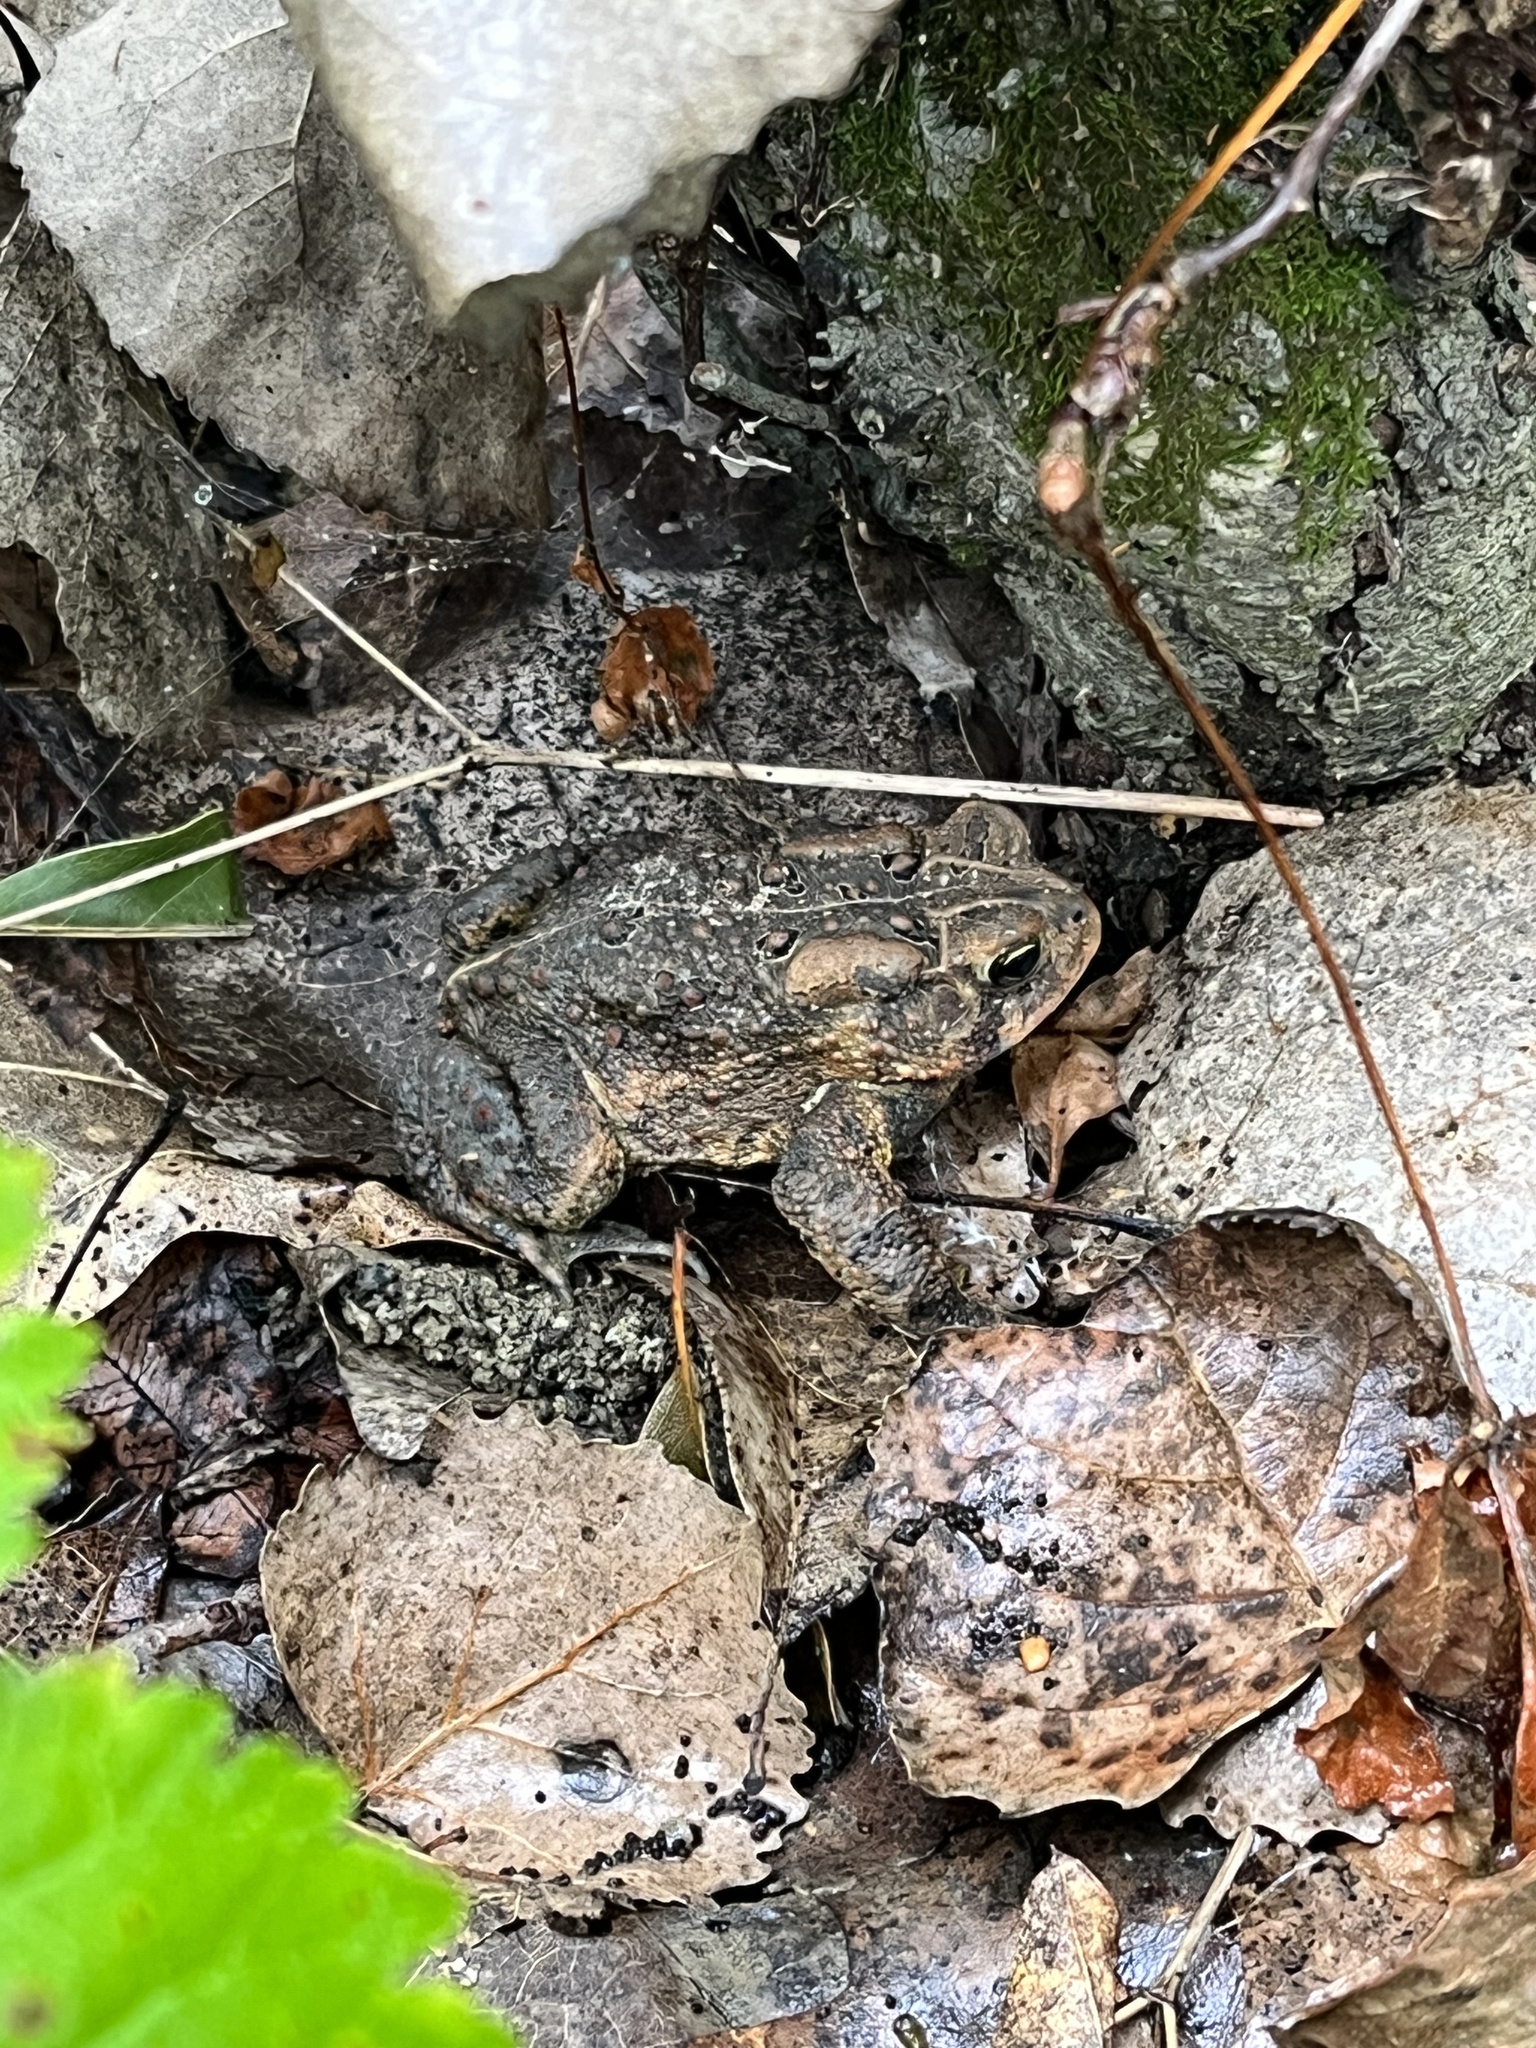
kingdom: Animalia
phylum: Chordata
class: Amphibia
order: Anura
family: Bufonidae
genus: Anaxyrus
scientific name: Anaxyrus americanus
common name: American toad
